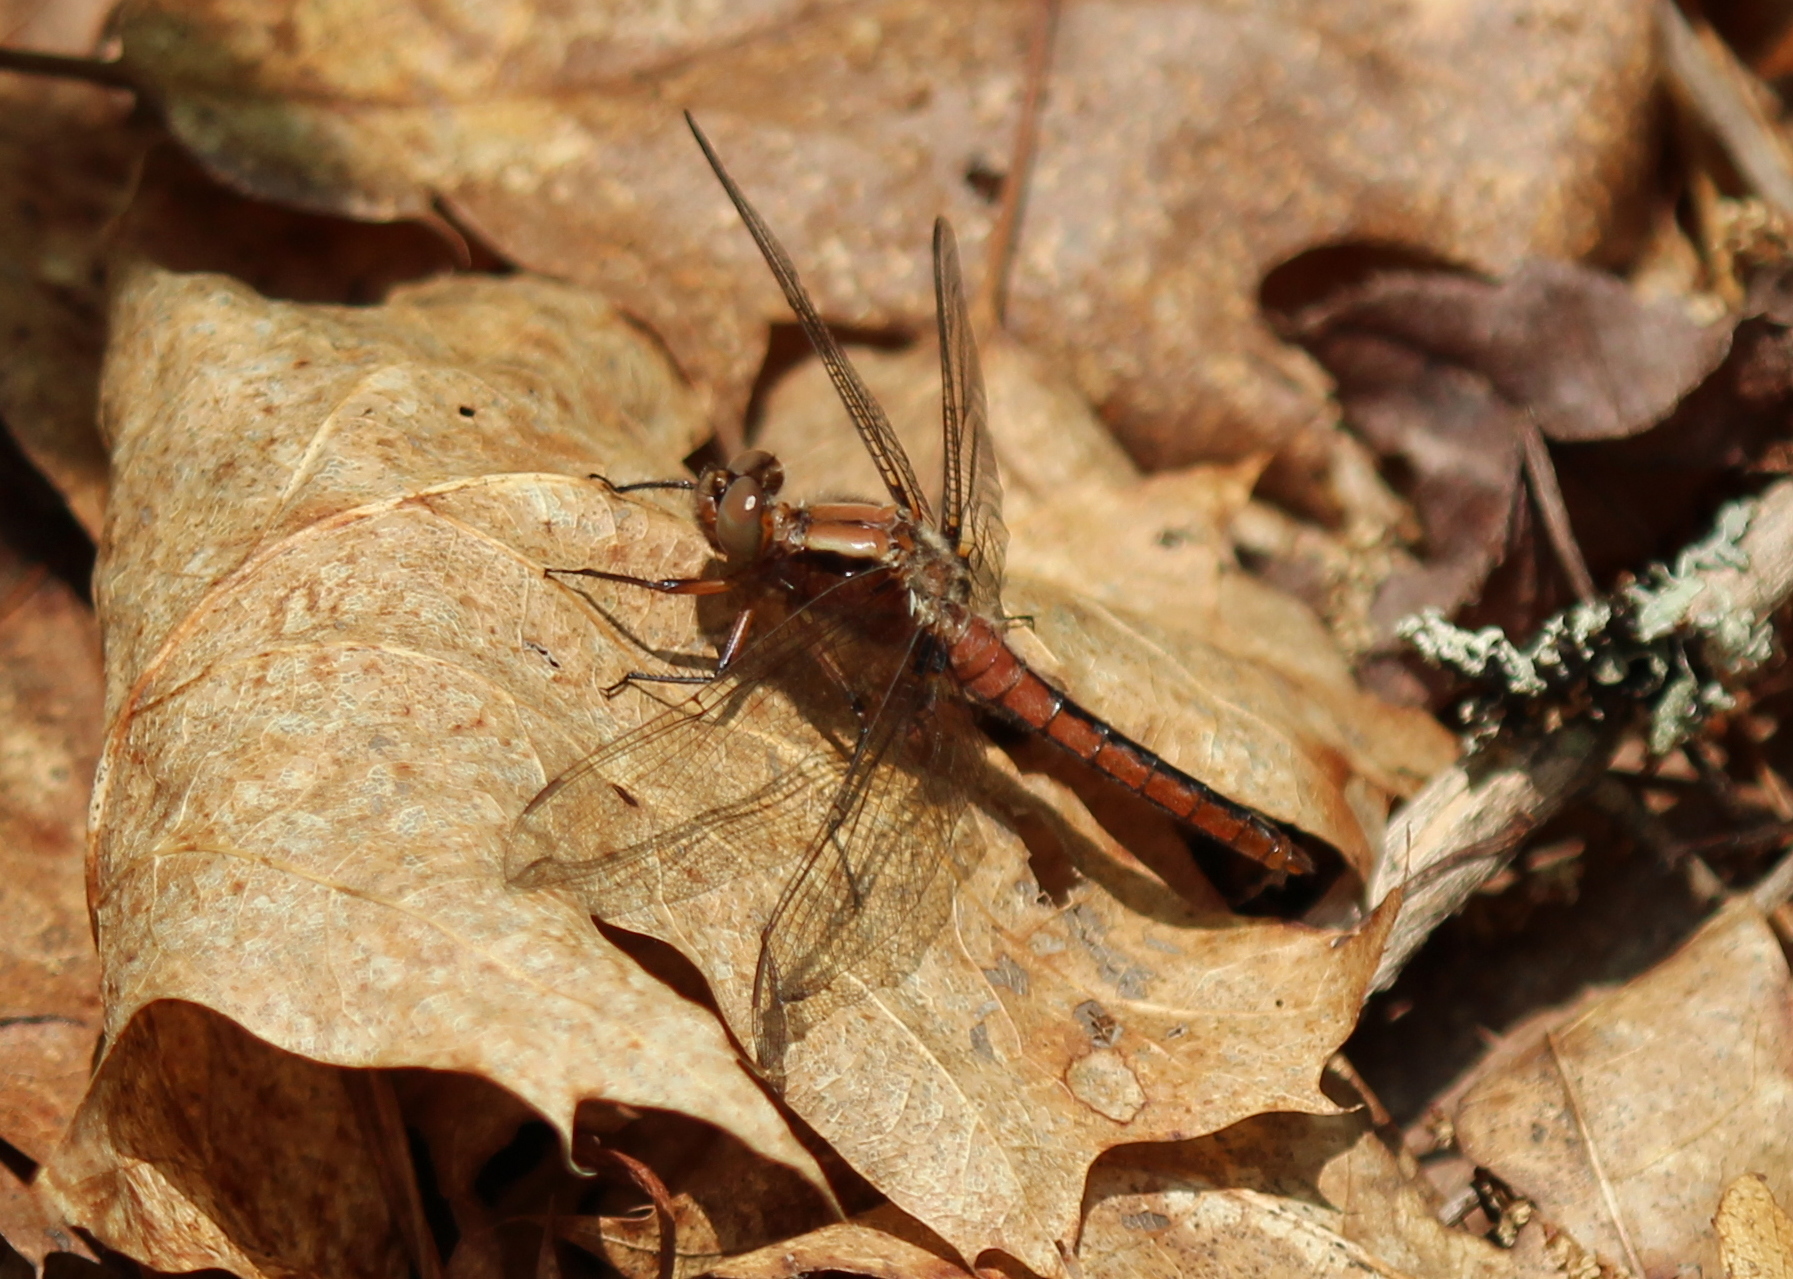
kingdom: Animalia
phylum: Arthropoda
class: Insecta
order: Odonata
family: Libellulidae
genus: Ladona
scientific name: Ladona julia
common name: Chalk-fronted corporal
